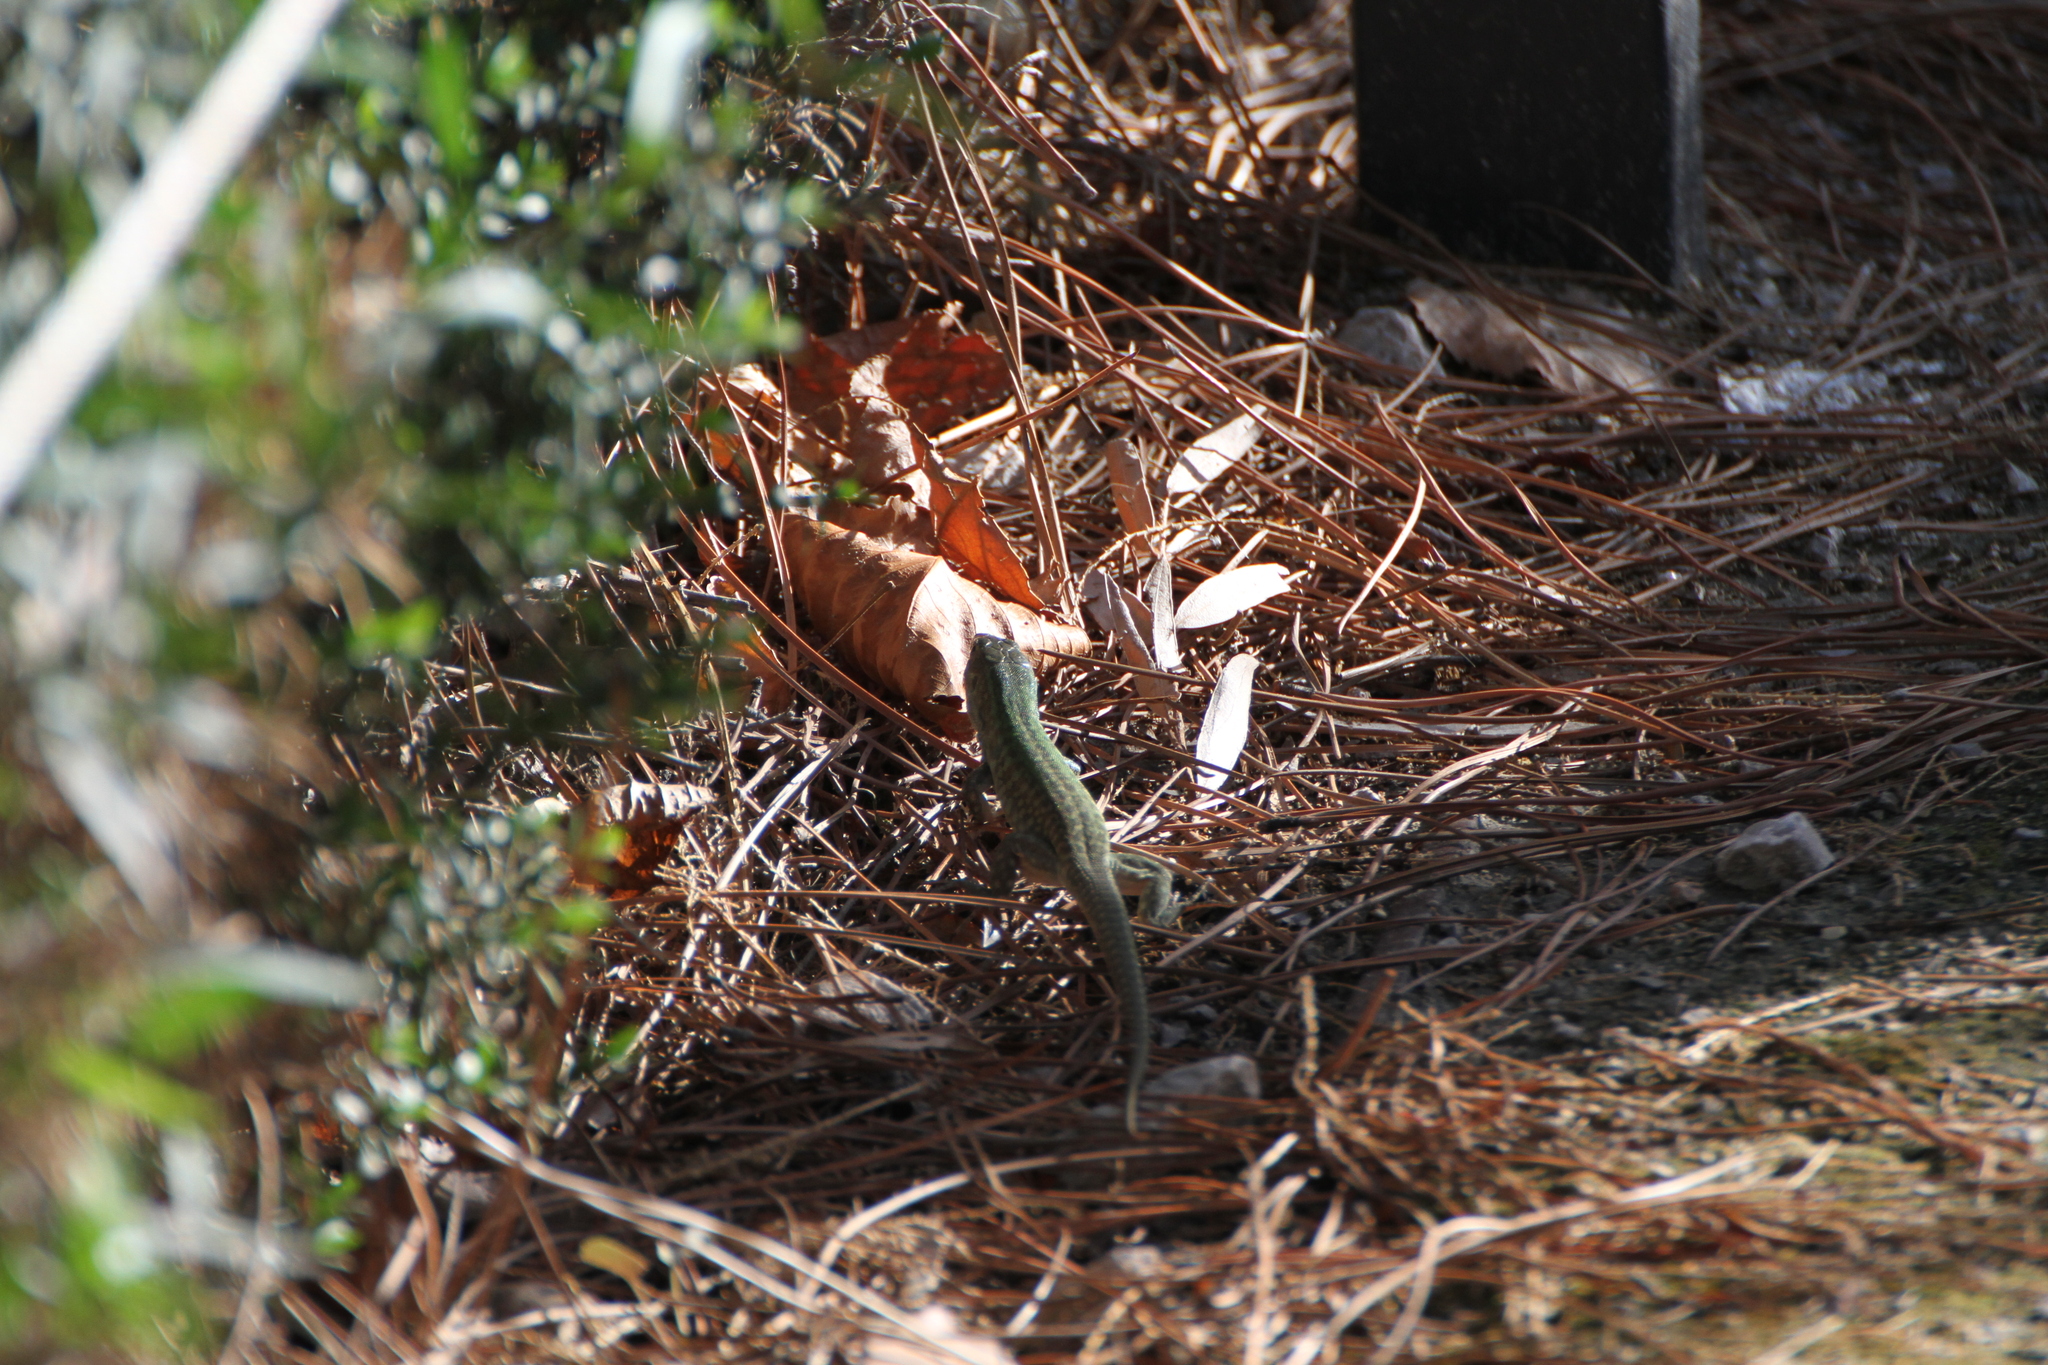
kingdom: Animalia
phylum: Chordata
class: Squamata
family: Lacertidae
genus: Podarcis
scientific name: Podarcis siculus
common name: Italian wall lizard
